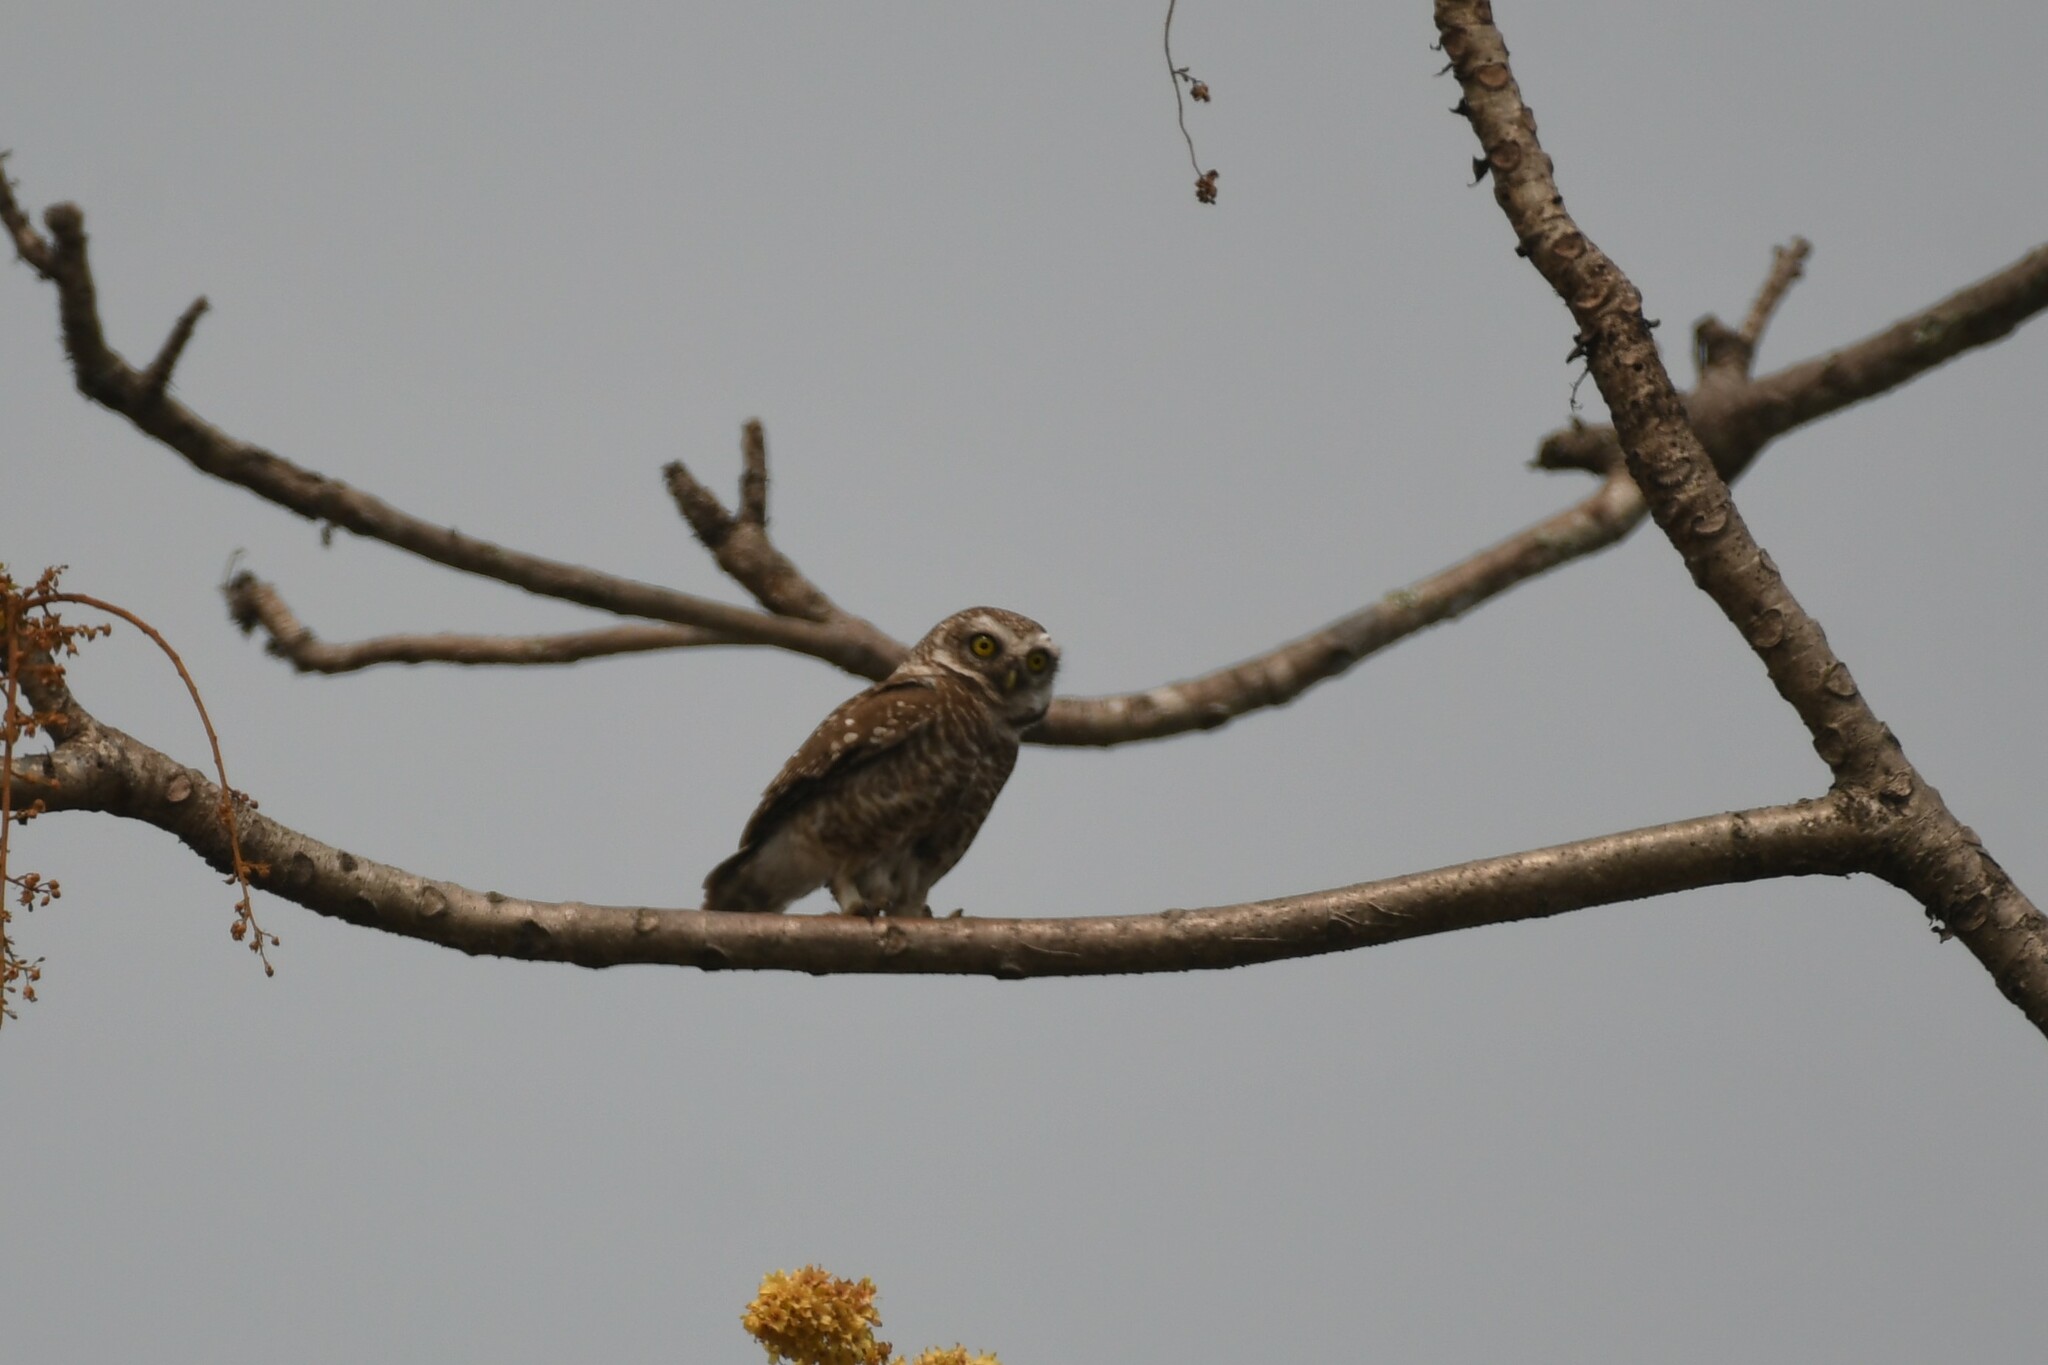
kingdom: Animalia
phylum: Chordata
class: Aves
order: Strigiformes
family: Strigidae
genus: Athene
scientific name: Athene brama
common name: Spotted owlet
